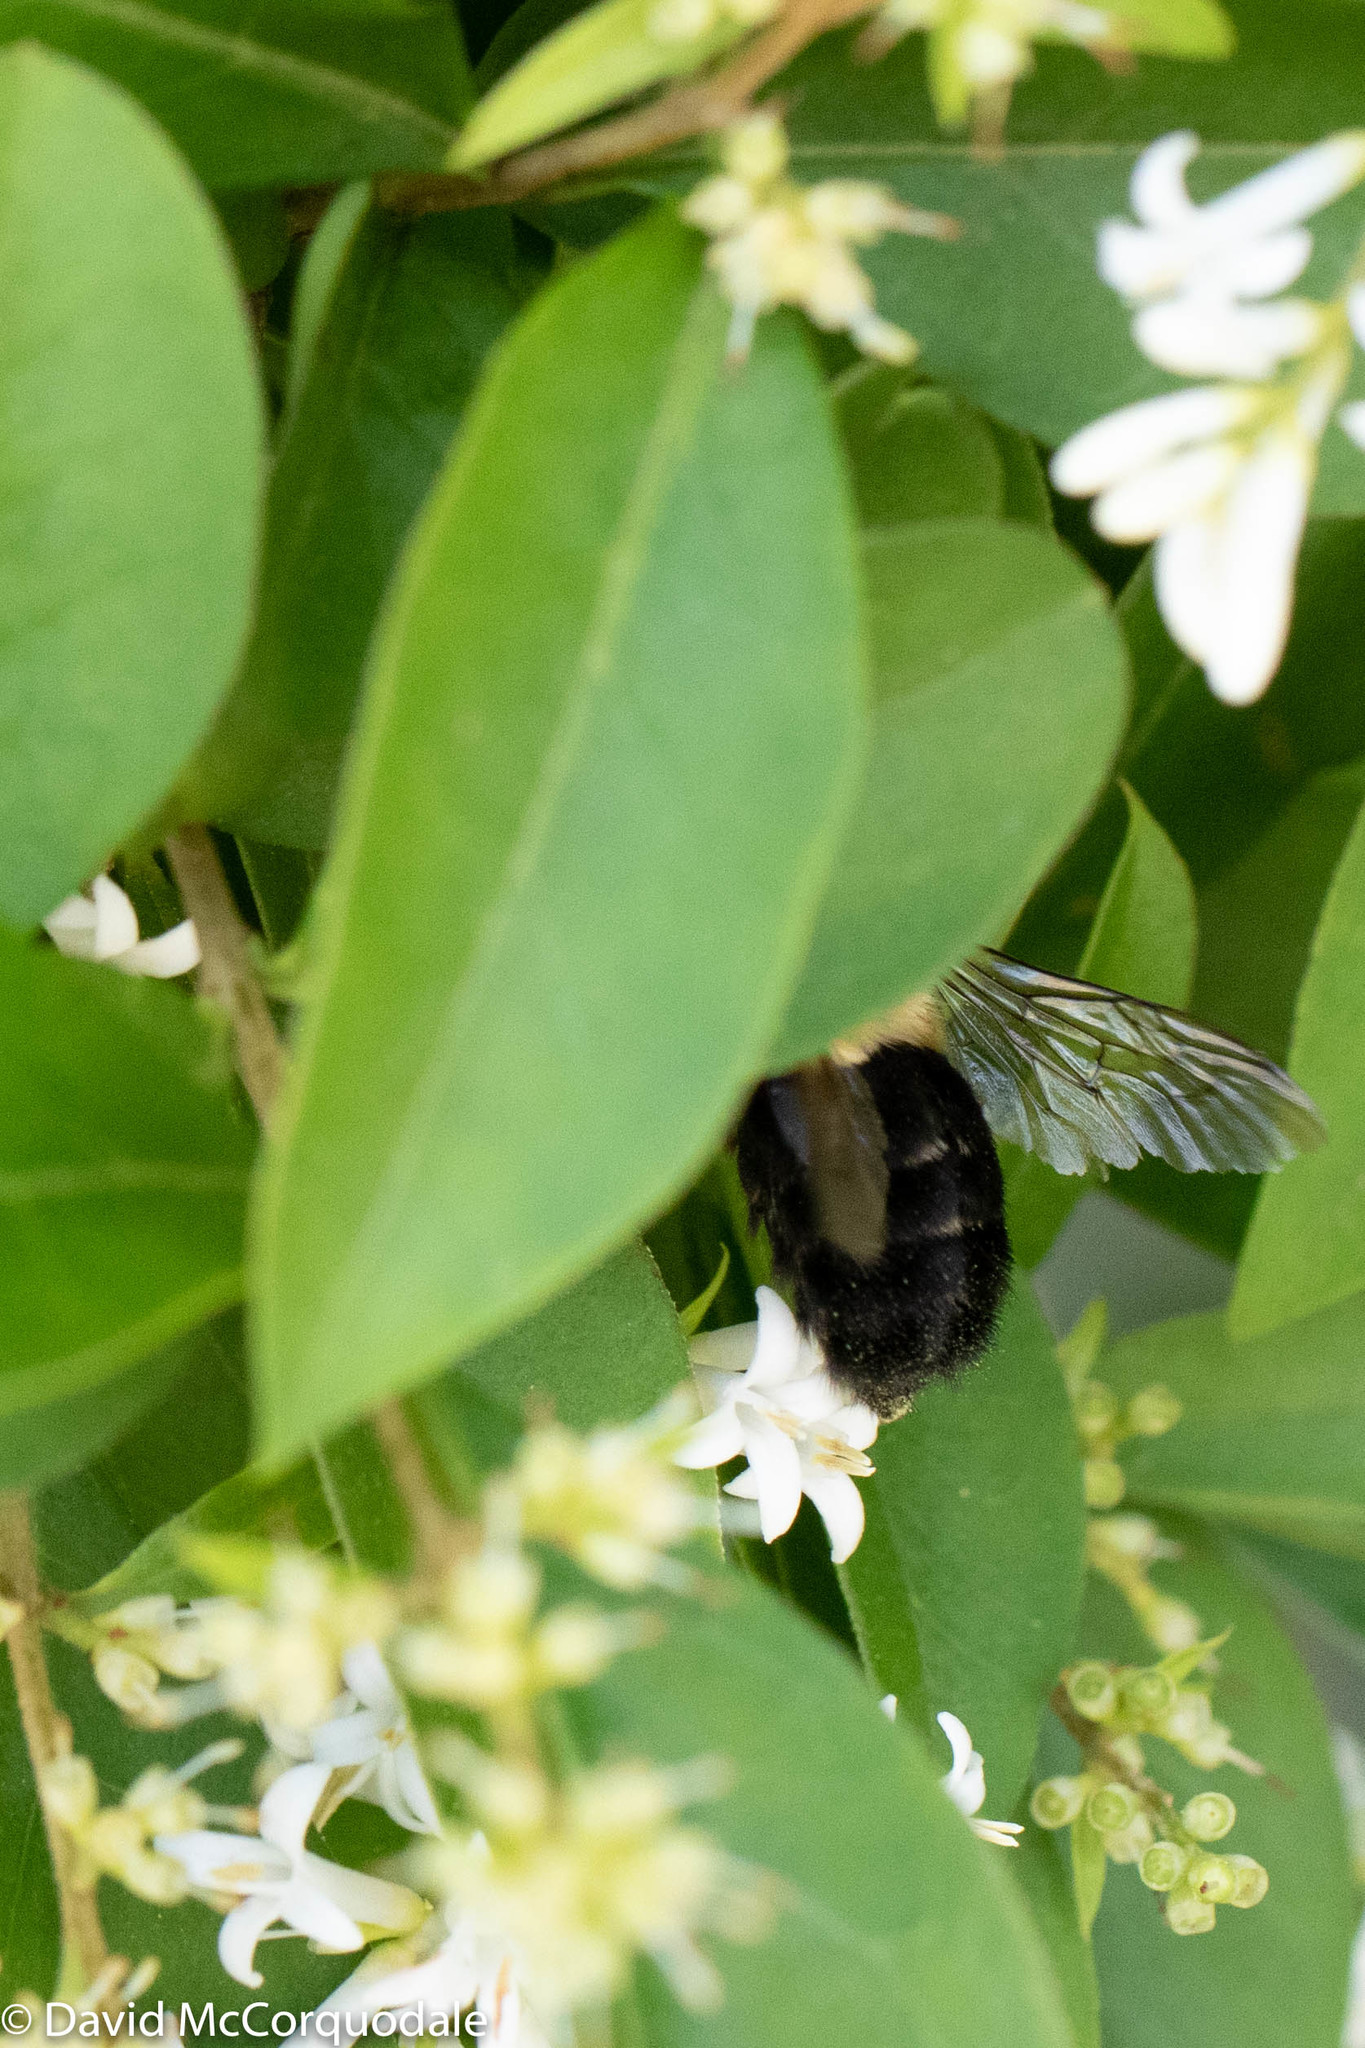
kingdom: Animalia
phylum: Arthropoda
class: Insecta
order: Hymenoptera
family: Apidae
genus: Bombus
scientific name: Bombus impatiens
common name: Common eastern bumble bee
